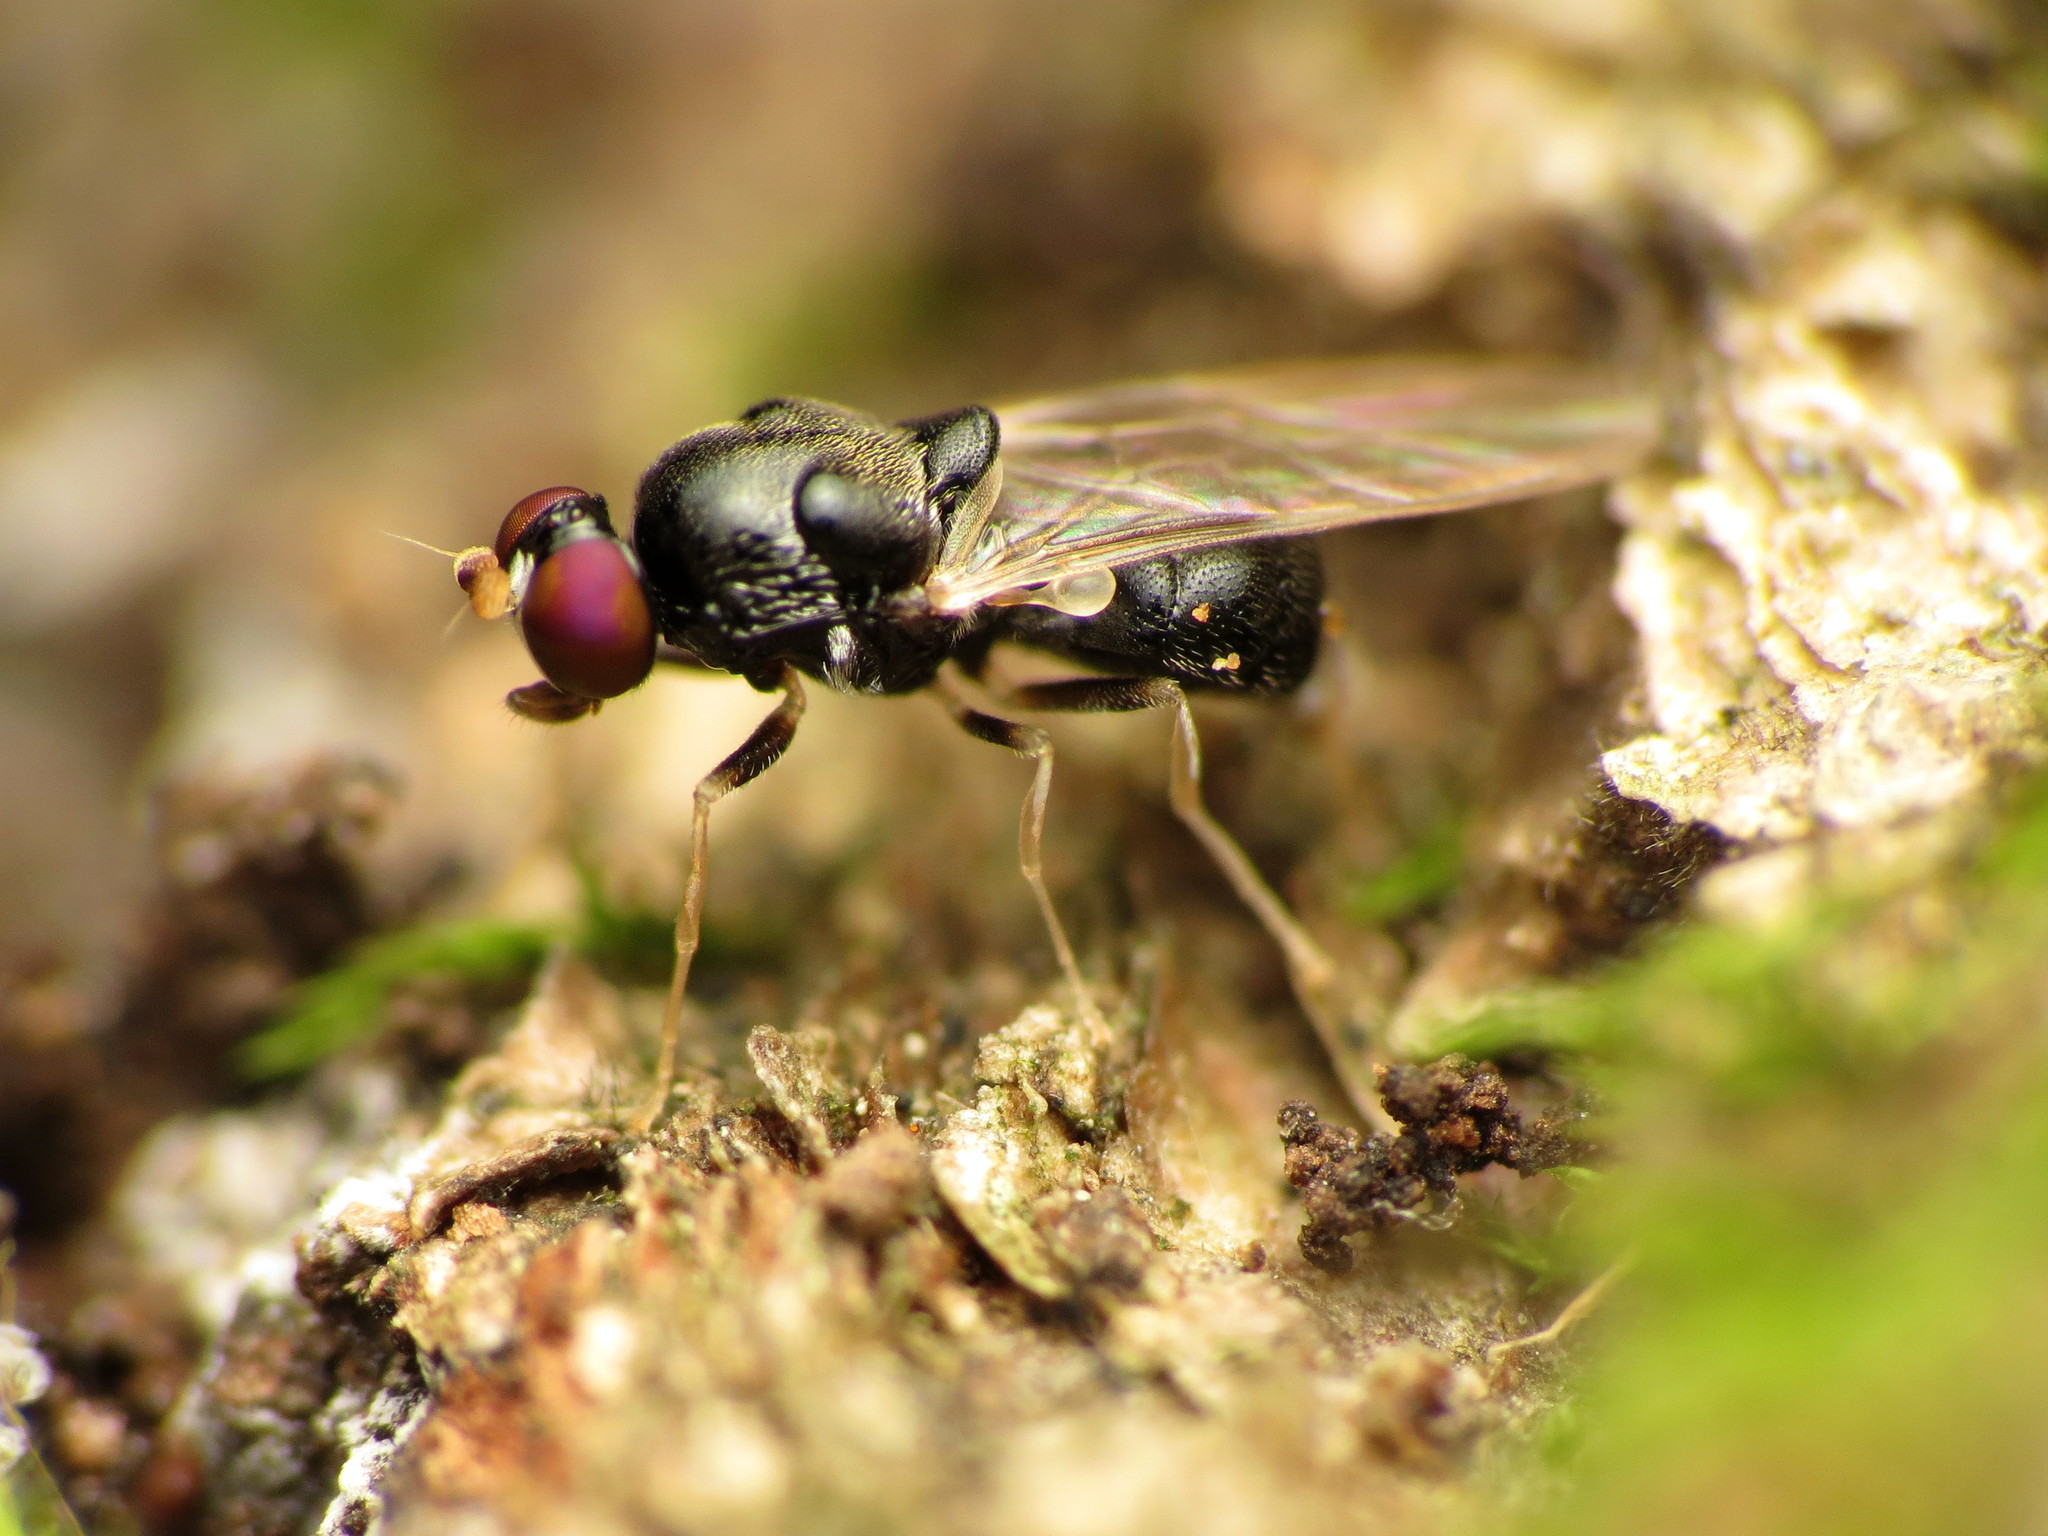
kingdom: Animalia
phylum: Arthropoda
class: Insecta
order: Diptera
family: Stratiomyidae
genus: Neopachygaster
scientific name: Neopachygaster maculicornis
